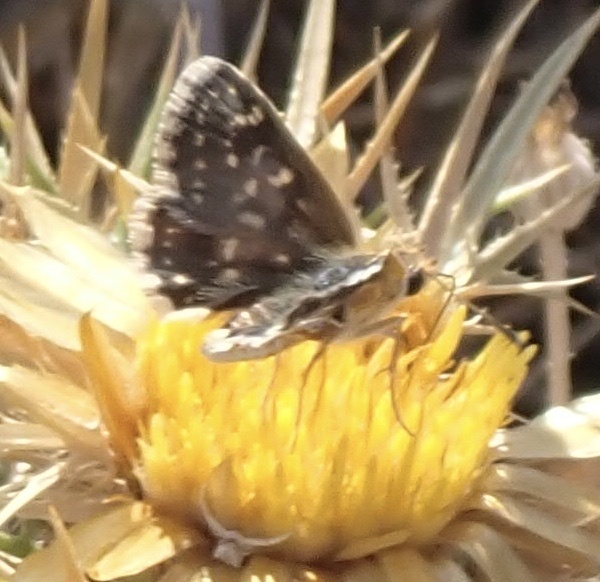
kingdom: Animalia
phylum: Arthropoda
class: Insecta
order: Lepidoptera
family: Hesperiidae
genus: Spialia
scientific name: Spialia sertorius
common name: Red underwing skipper
